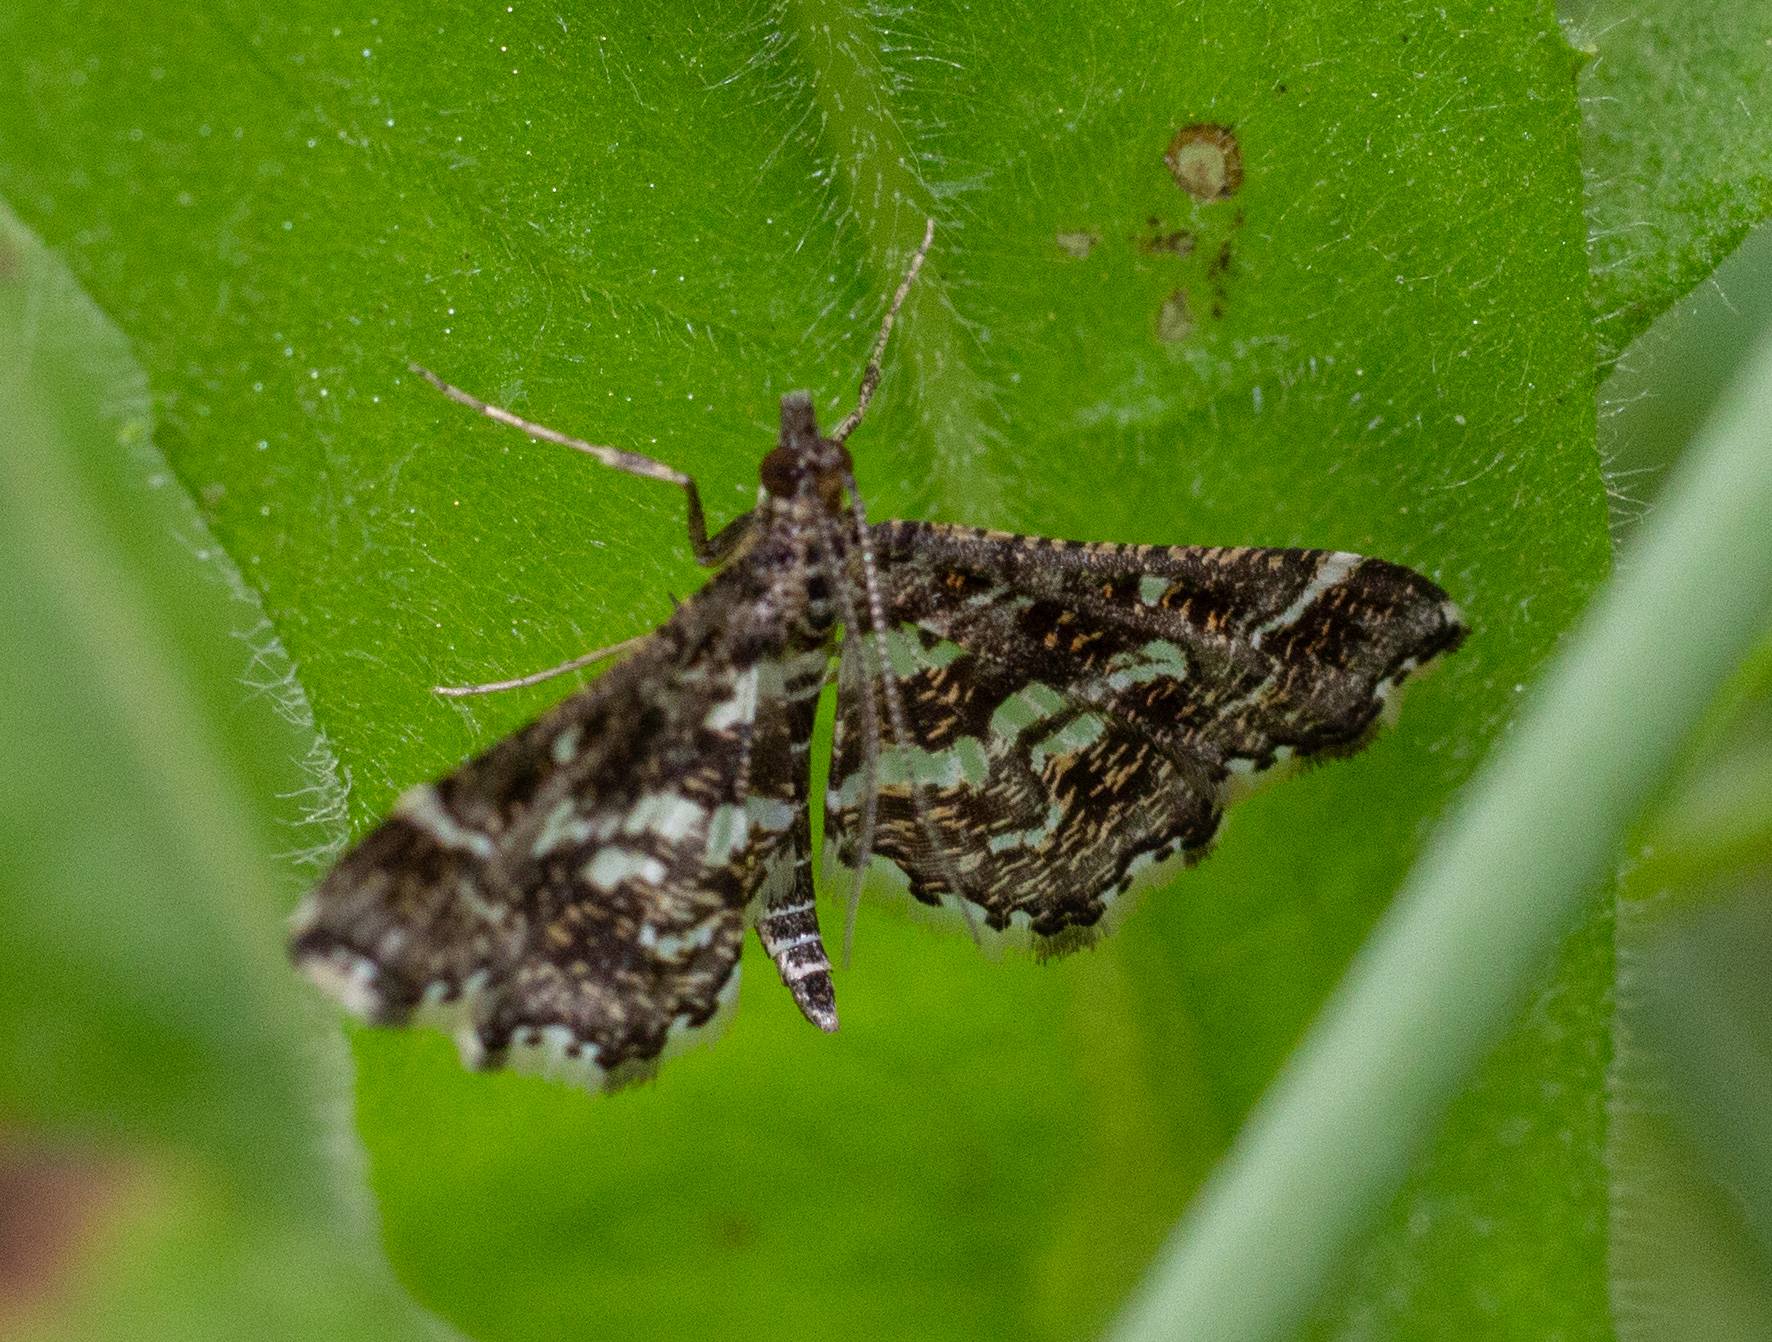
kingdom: Animalia
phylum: Arthropoda
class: Insecta
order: Lepidoptera
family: Crambidae
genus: Diasemiopsis
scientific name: Diasemiopsis ramburialis
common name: Vagrant china-mark
